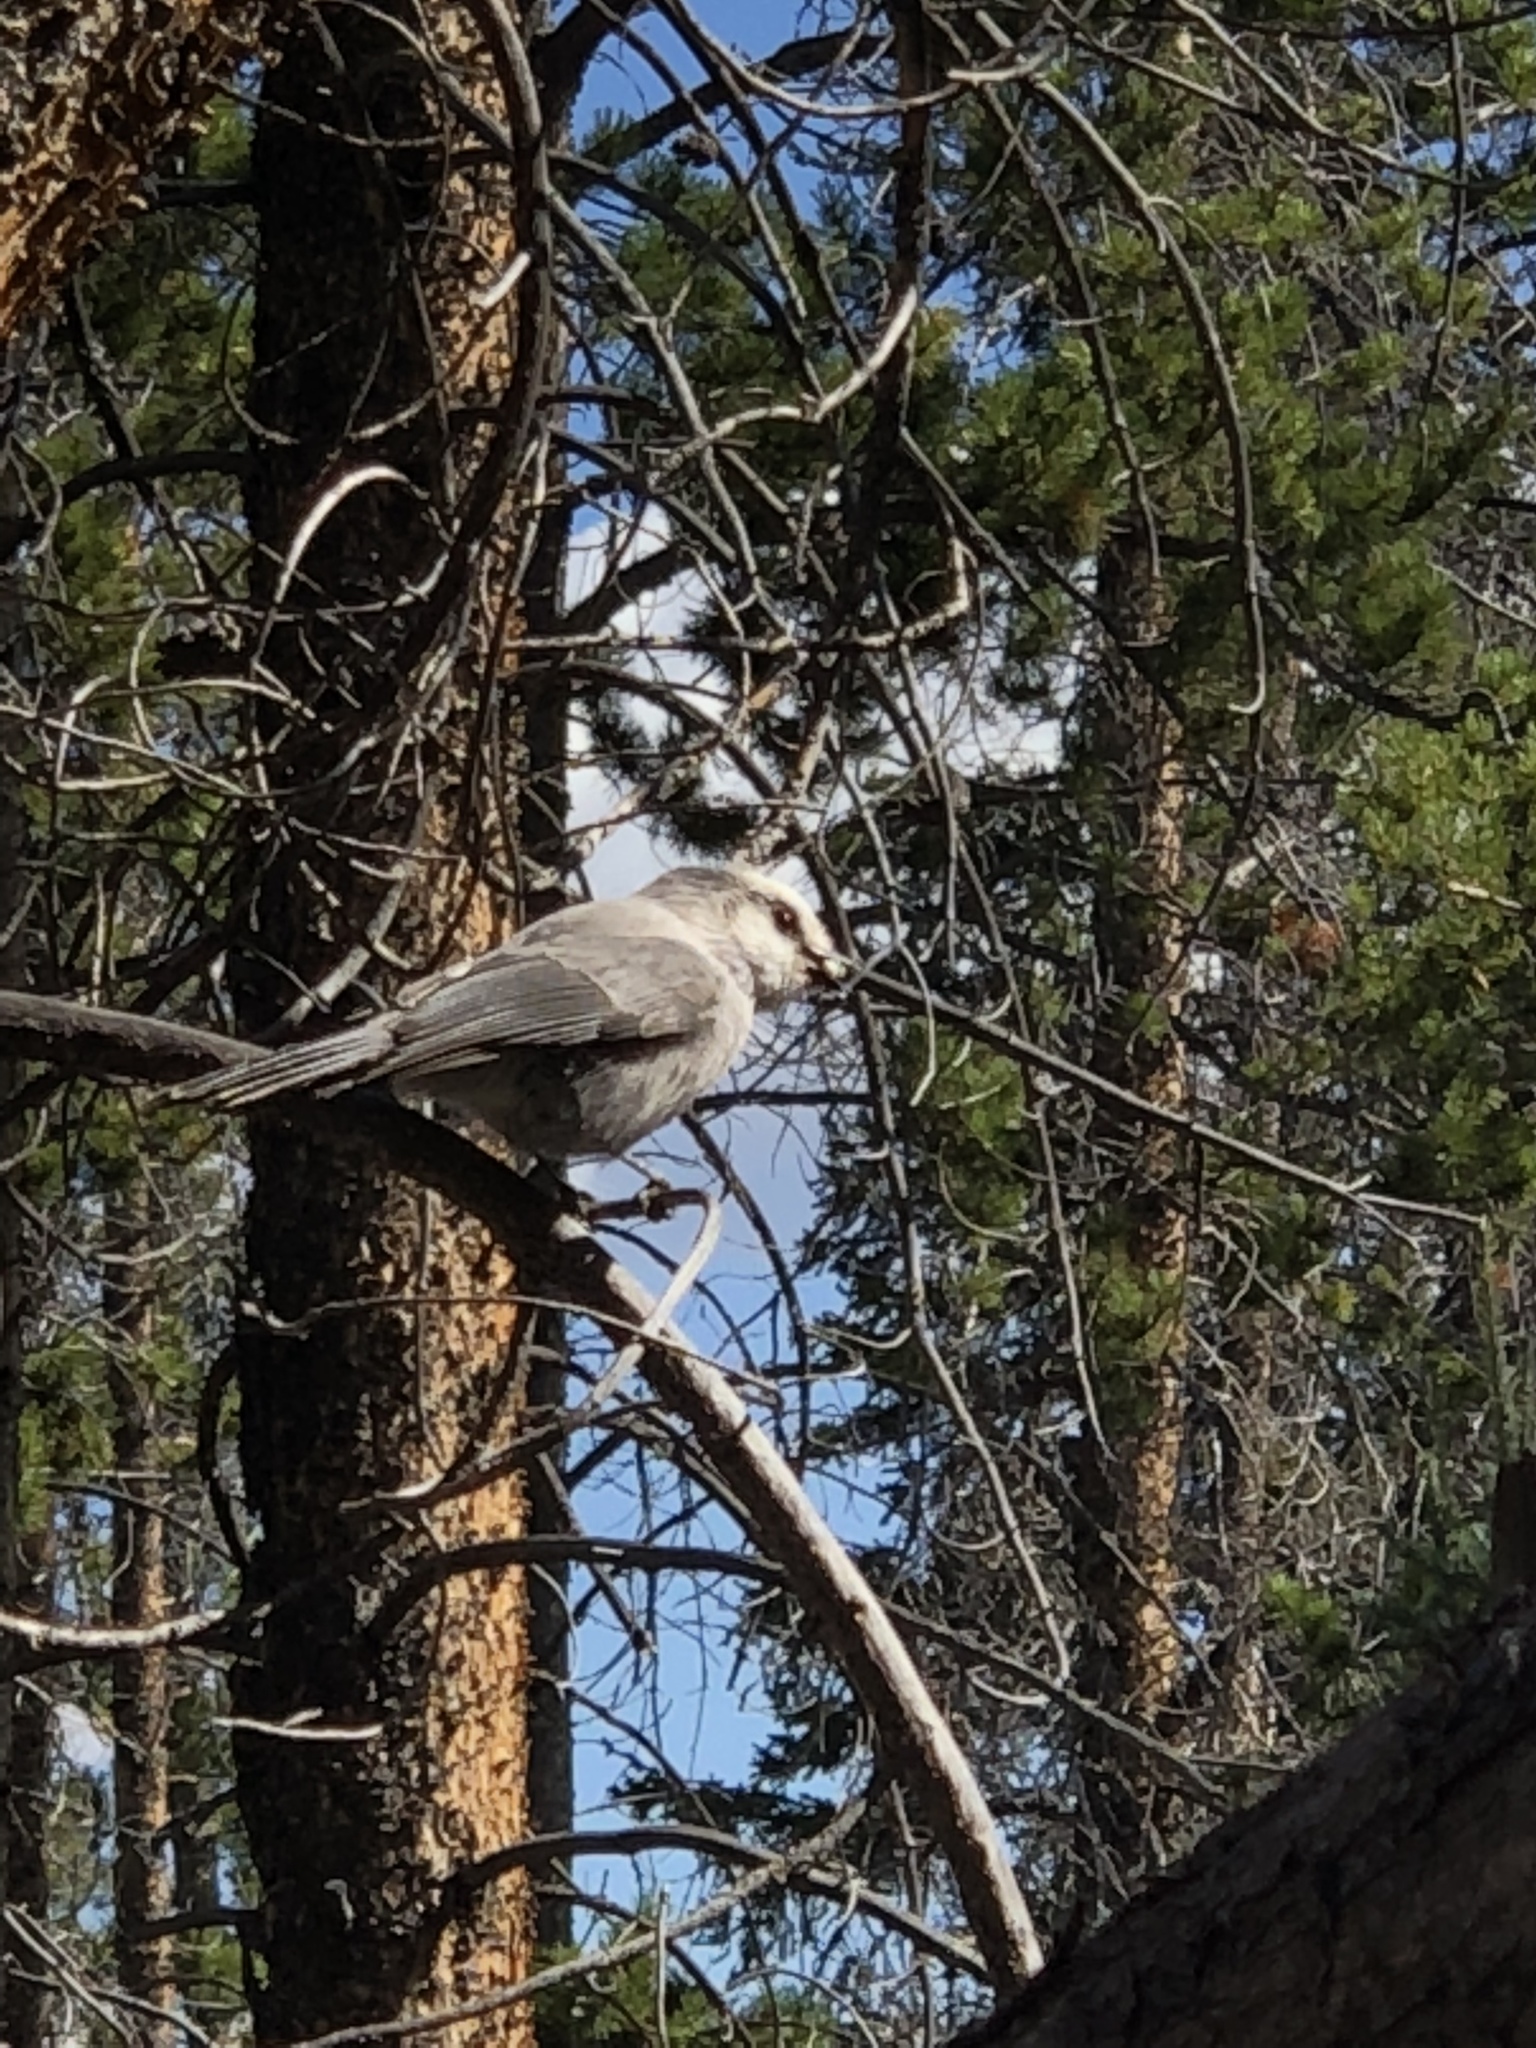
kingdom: Animalia
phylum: Chordata
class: Aves
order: Passeriformes
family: Corvidae
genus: Perisoreus
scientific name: Perisoreus canadensis
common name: Gray jay
